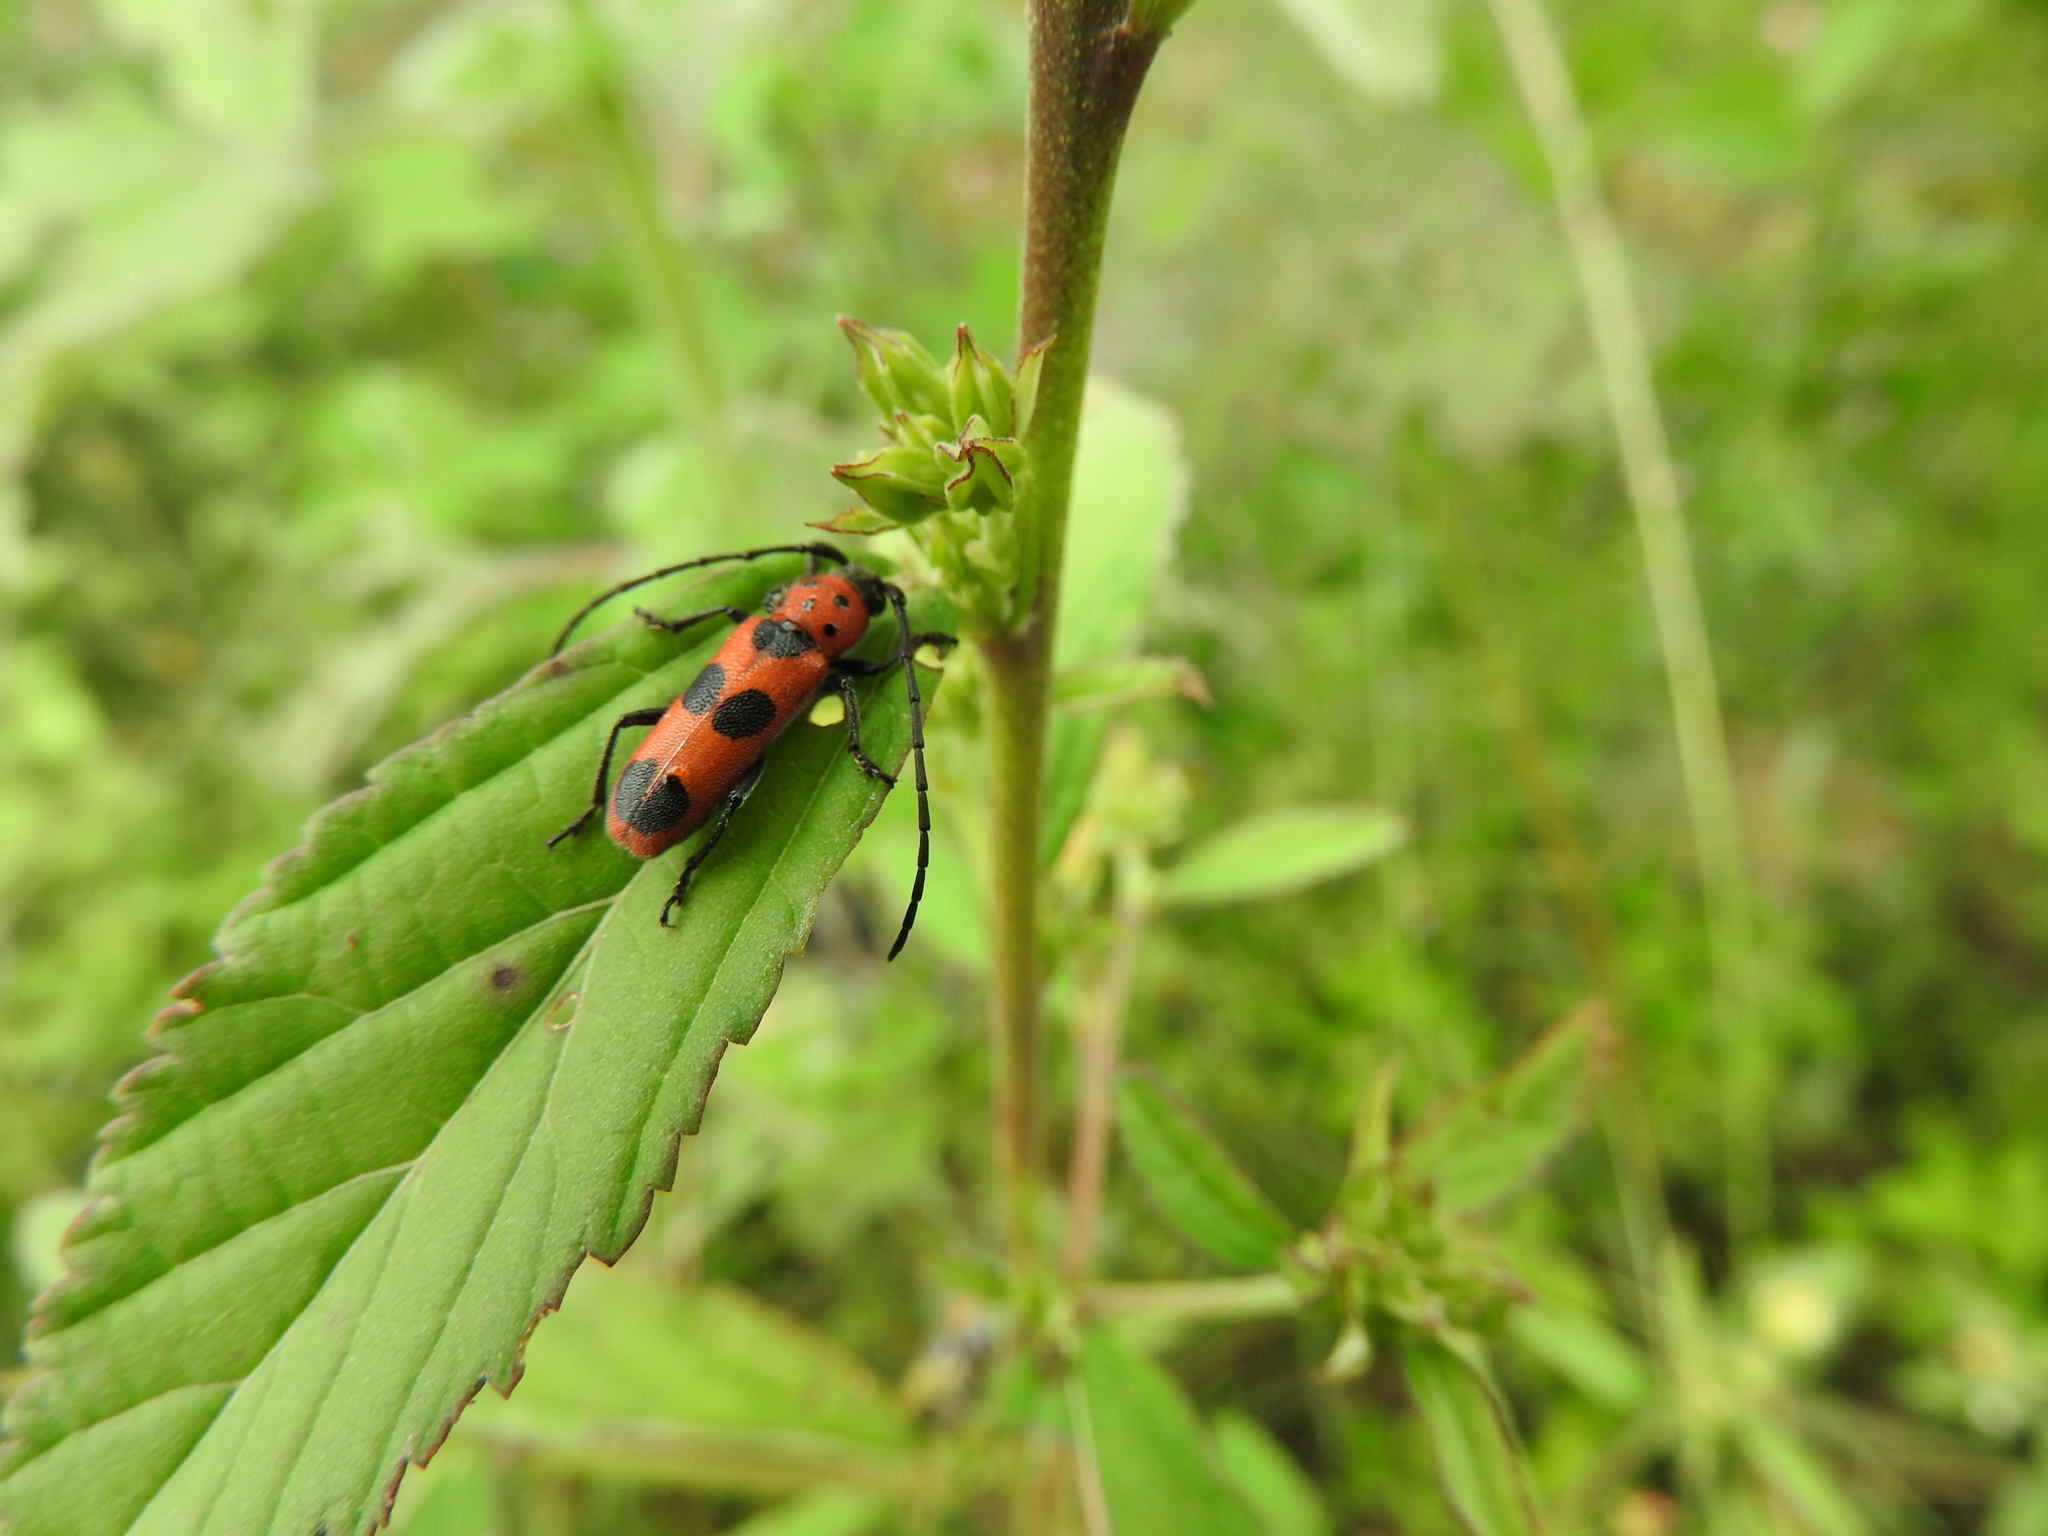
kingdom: Animalia
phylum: Arthropoda
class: Insecta
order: Coleoptera
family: Cerambycidae
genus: Tylosis
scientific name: Tylosis puncticollis
